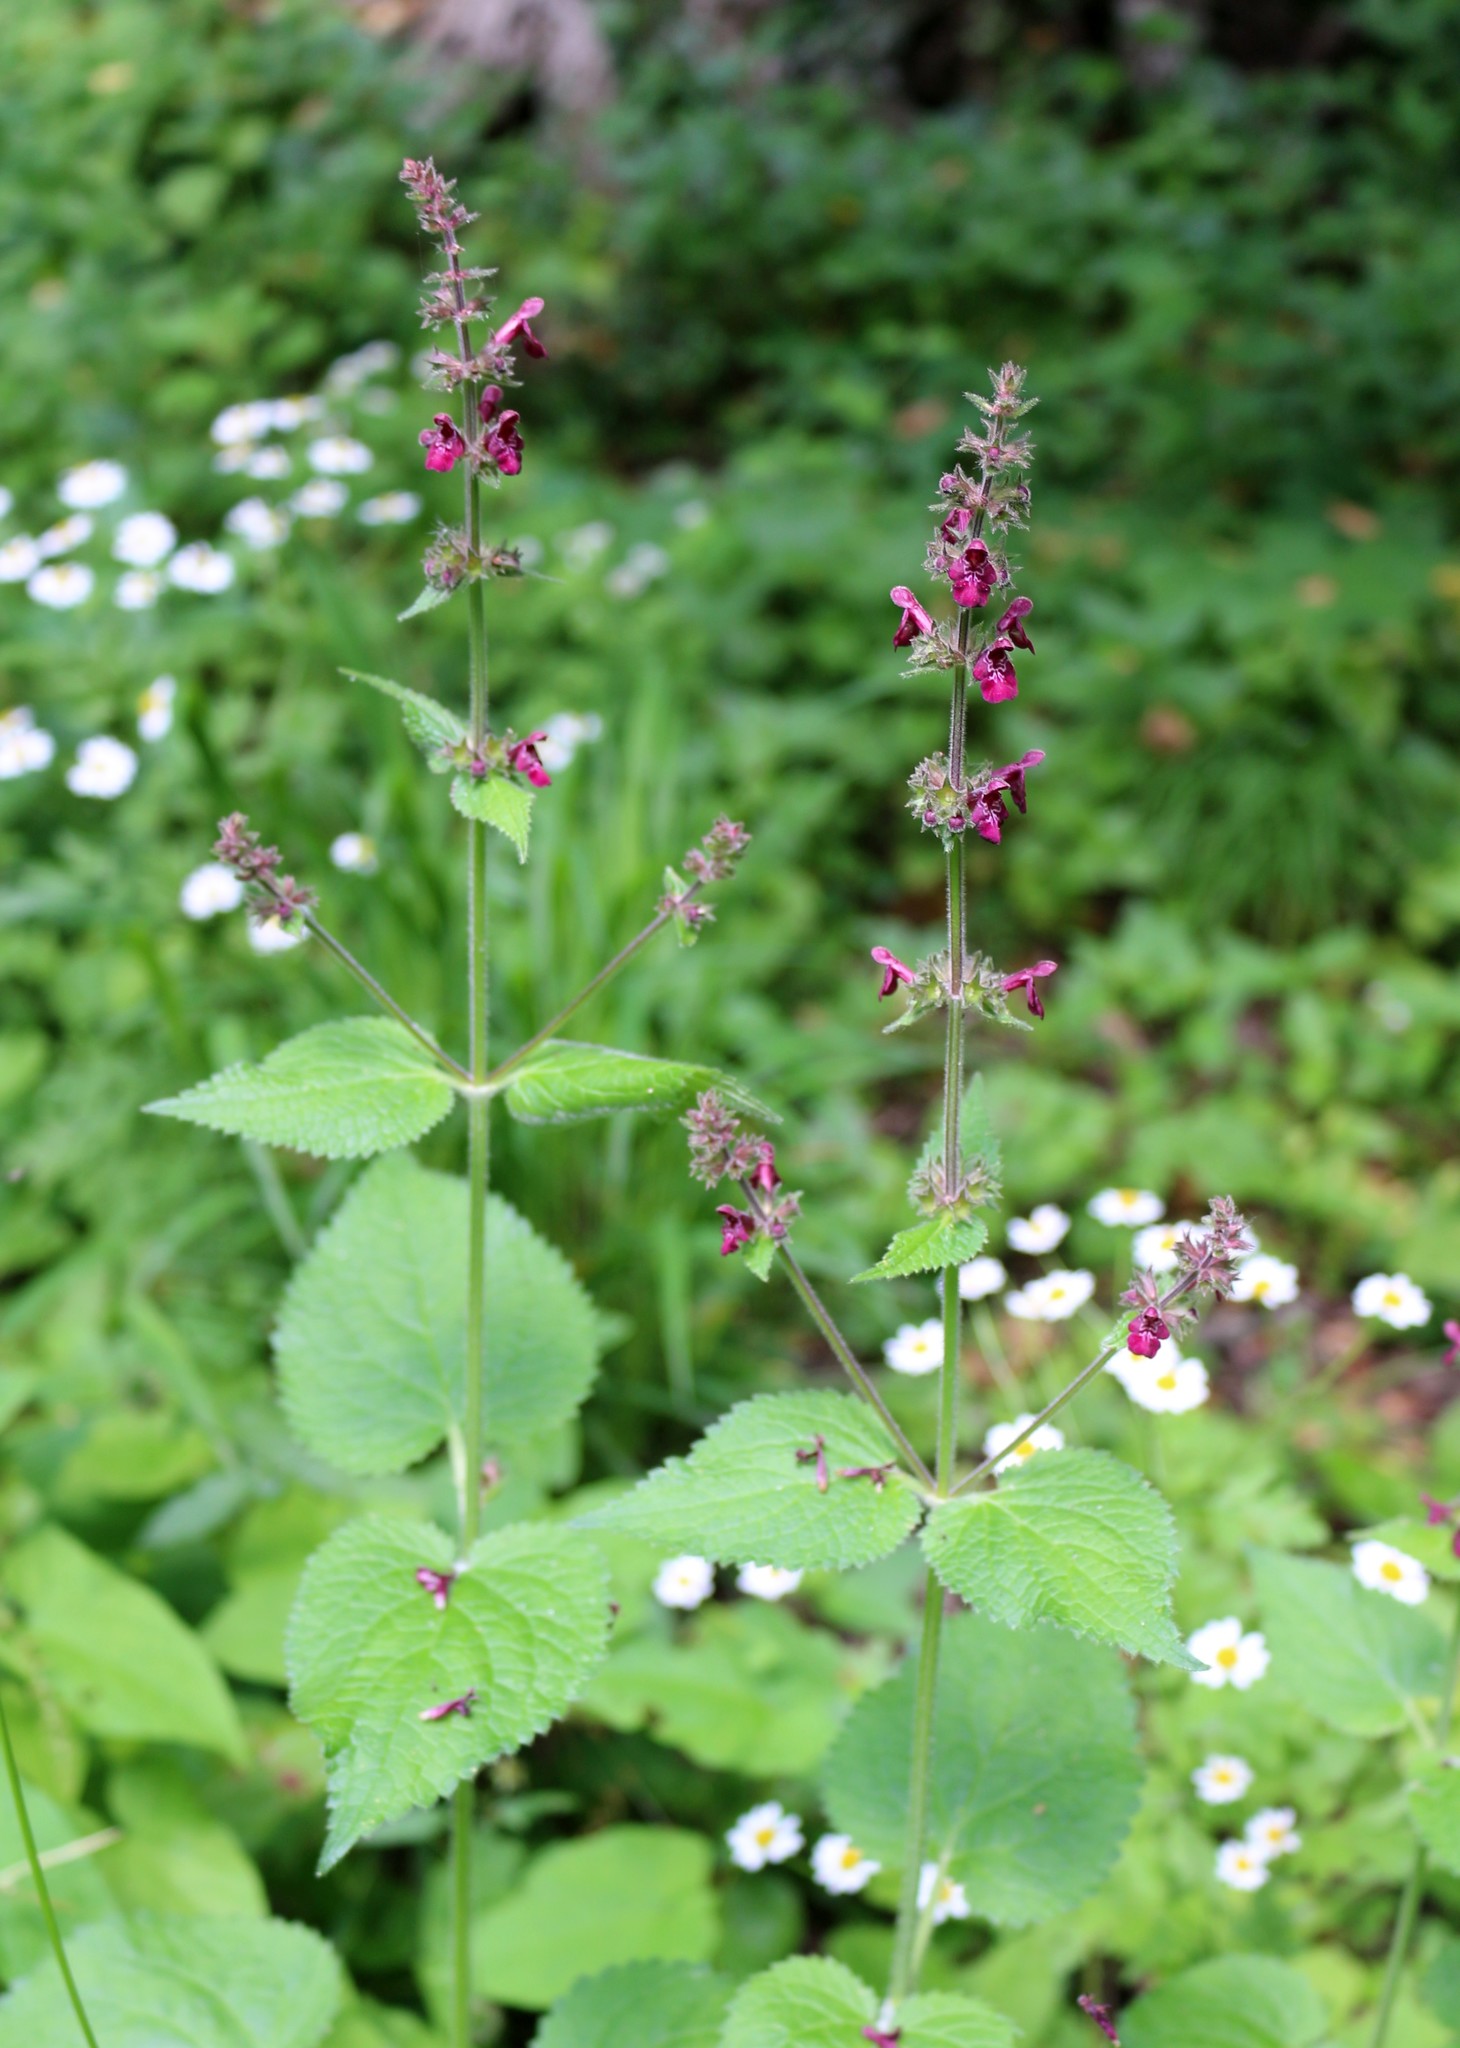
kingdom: Plantae
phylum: Tracheophyta
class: Magnoliopsida
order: Lamiales
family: Lamiaceae
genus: Stachys
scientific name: Stachys sylvatica
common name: Hedge woundwort
